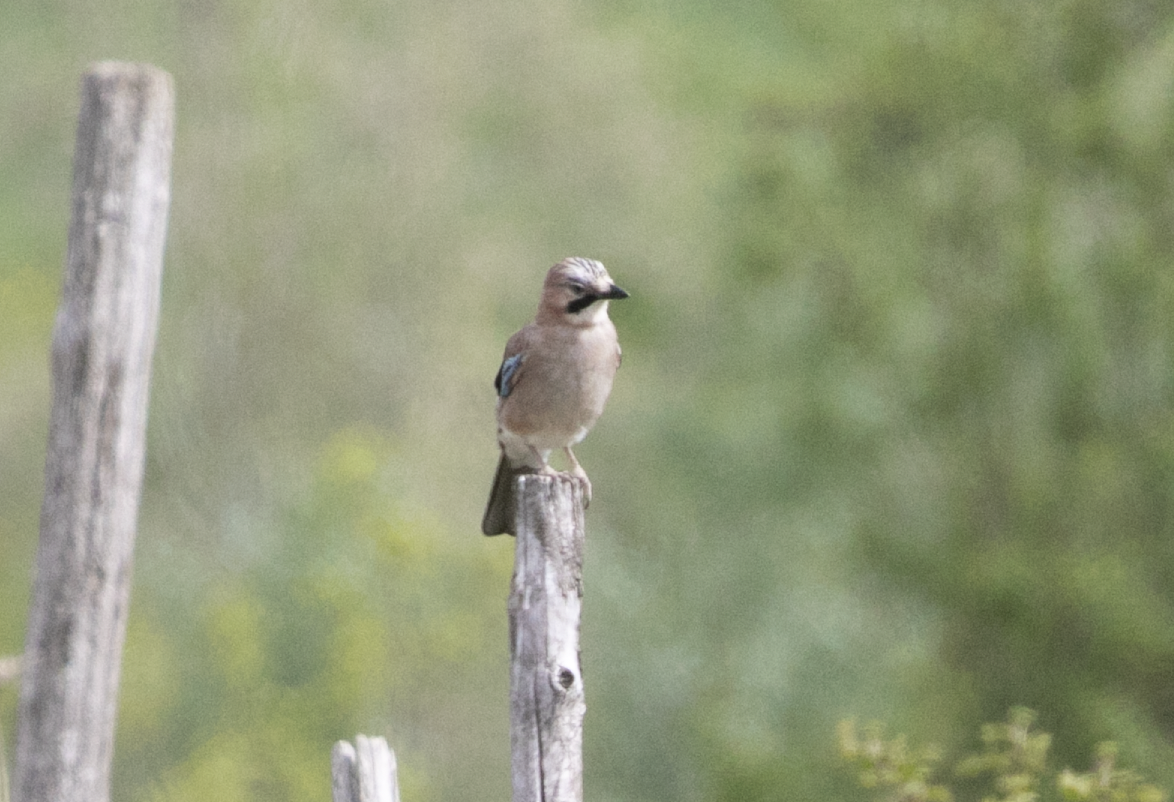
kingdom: Animalia
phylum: Chordata
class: Aves
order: Passeriformes
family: Corvidae
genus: Garrulus
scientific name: Garrulus glandarius
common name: Eurasian jay
